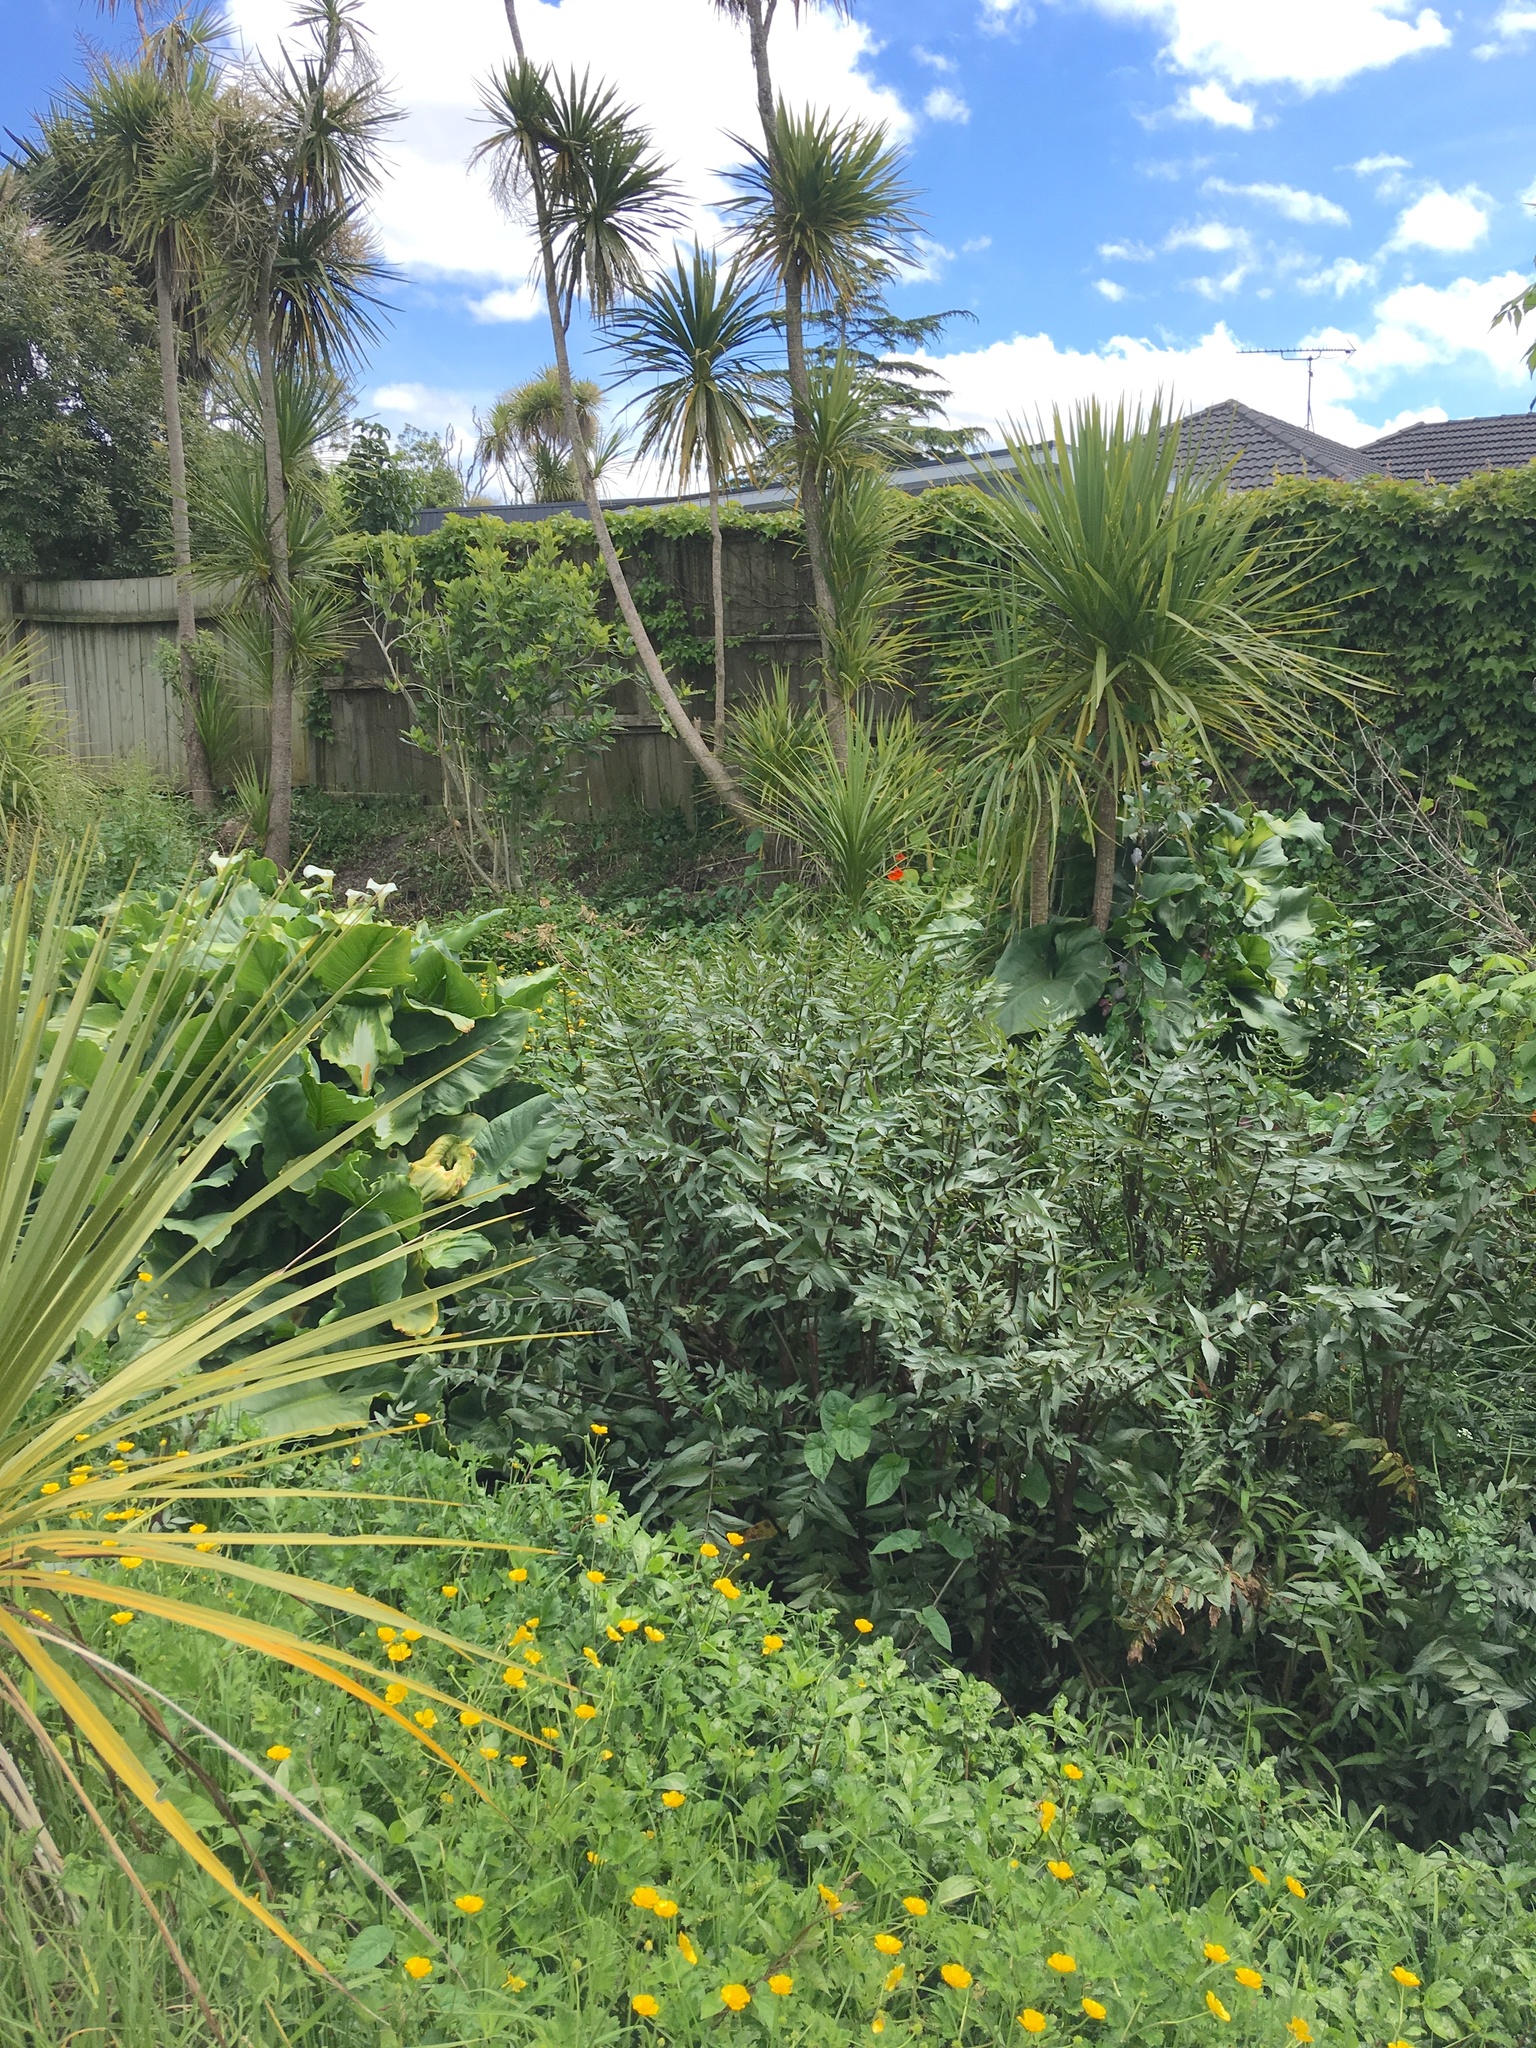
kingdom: Plantae
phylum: Tracheophyta
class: Liliopsida
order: Asparagales
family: Asparagaceae
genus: Cordyline
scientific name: Cordyline australis
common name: Cabbage-palm
